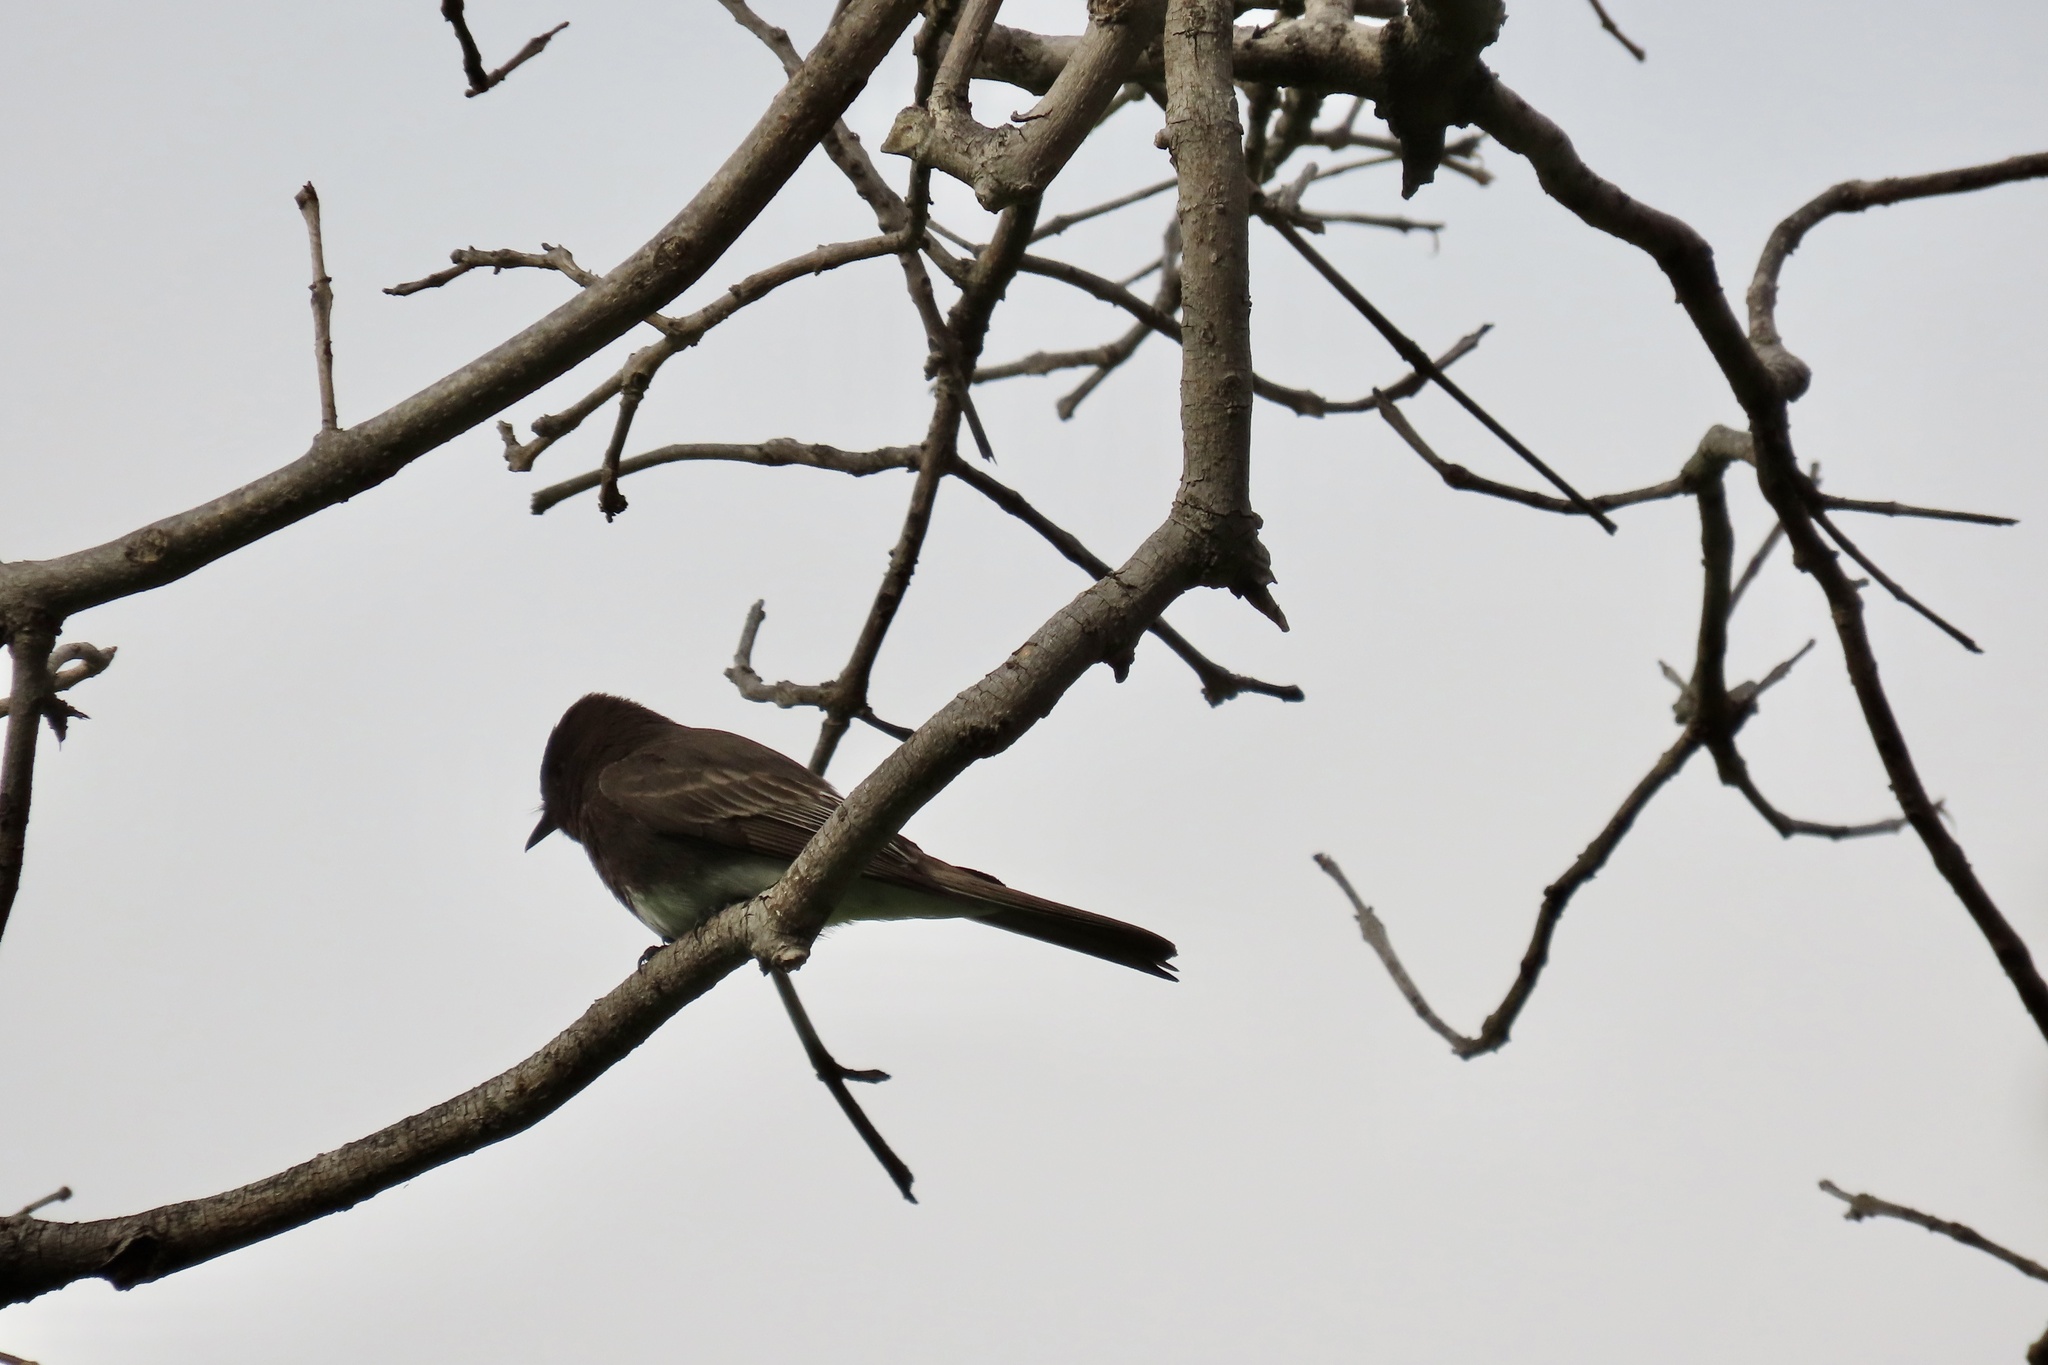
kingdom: Animalia
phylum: Chordata
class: Aves
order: Passeriformes
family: Tyrannidae
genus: Sayornis
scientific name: Sayornis nigricans
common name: Black phoebe
